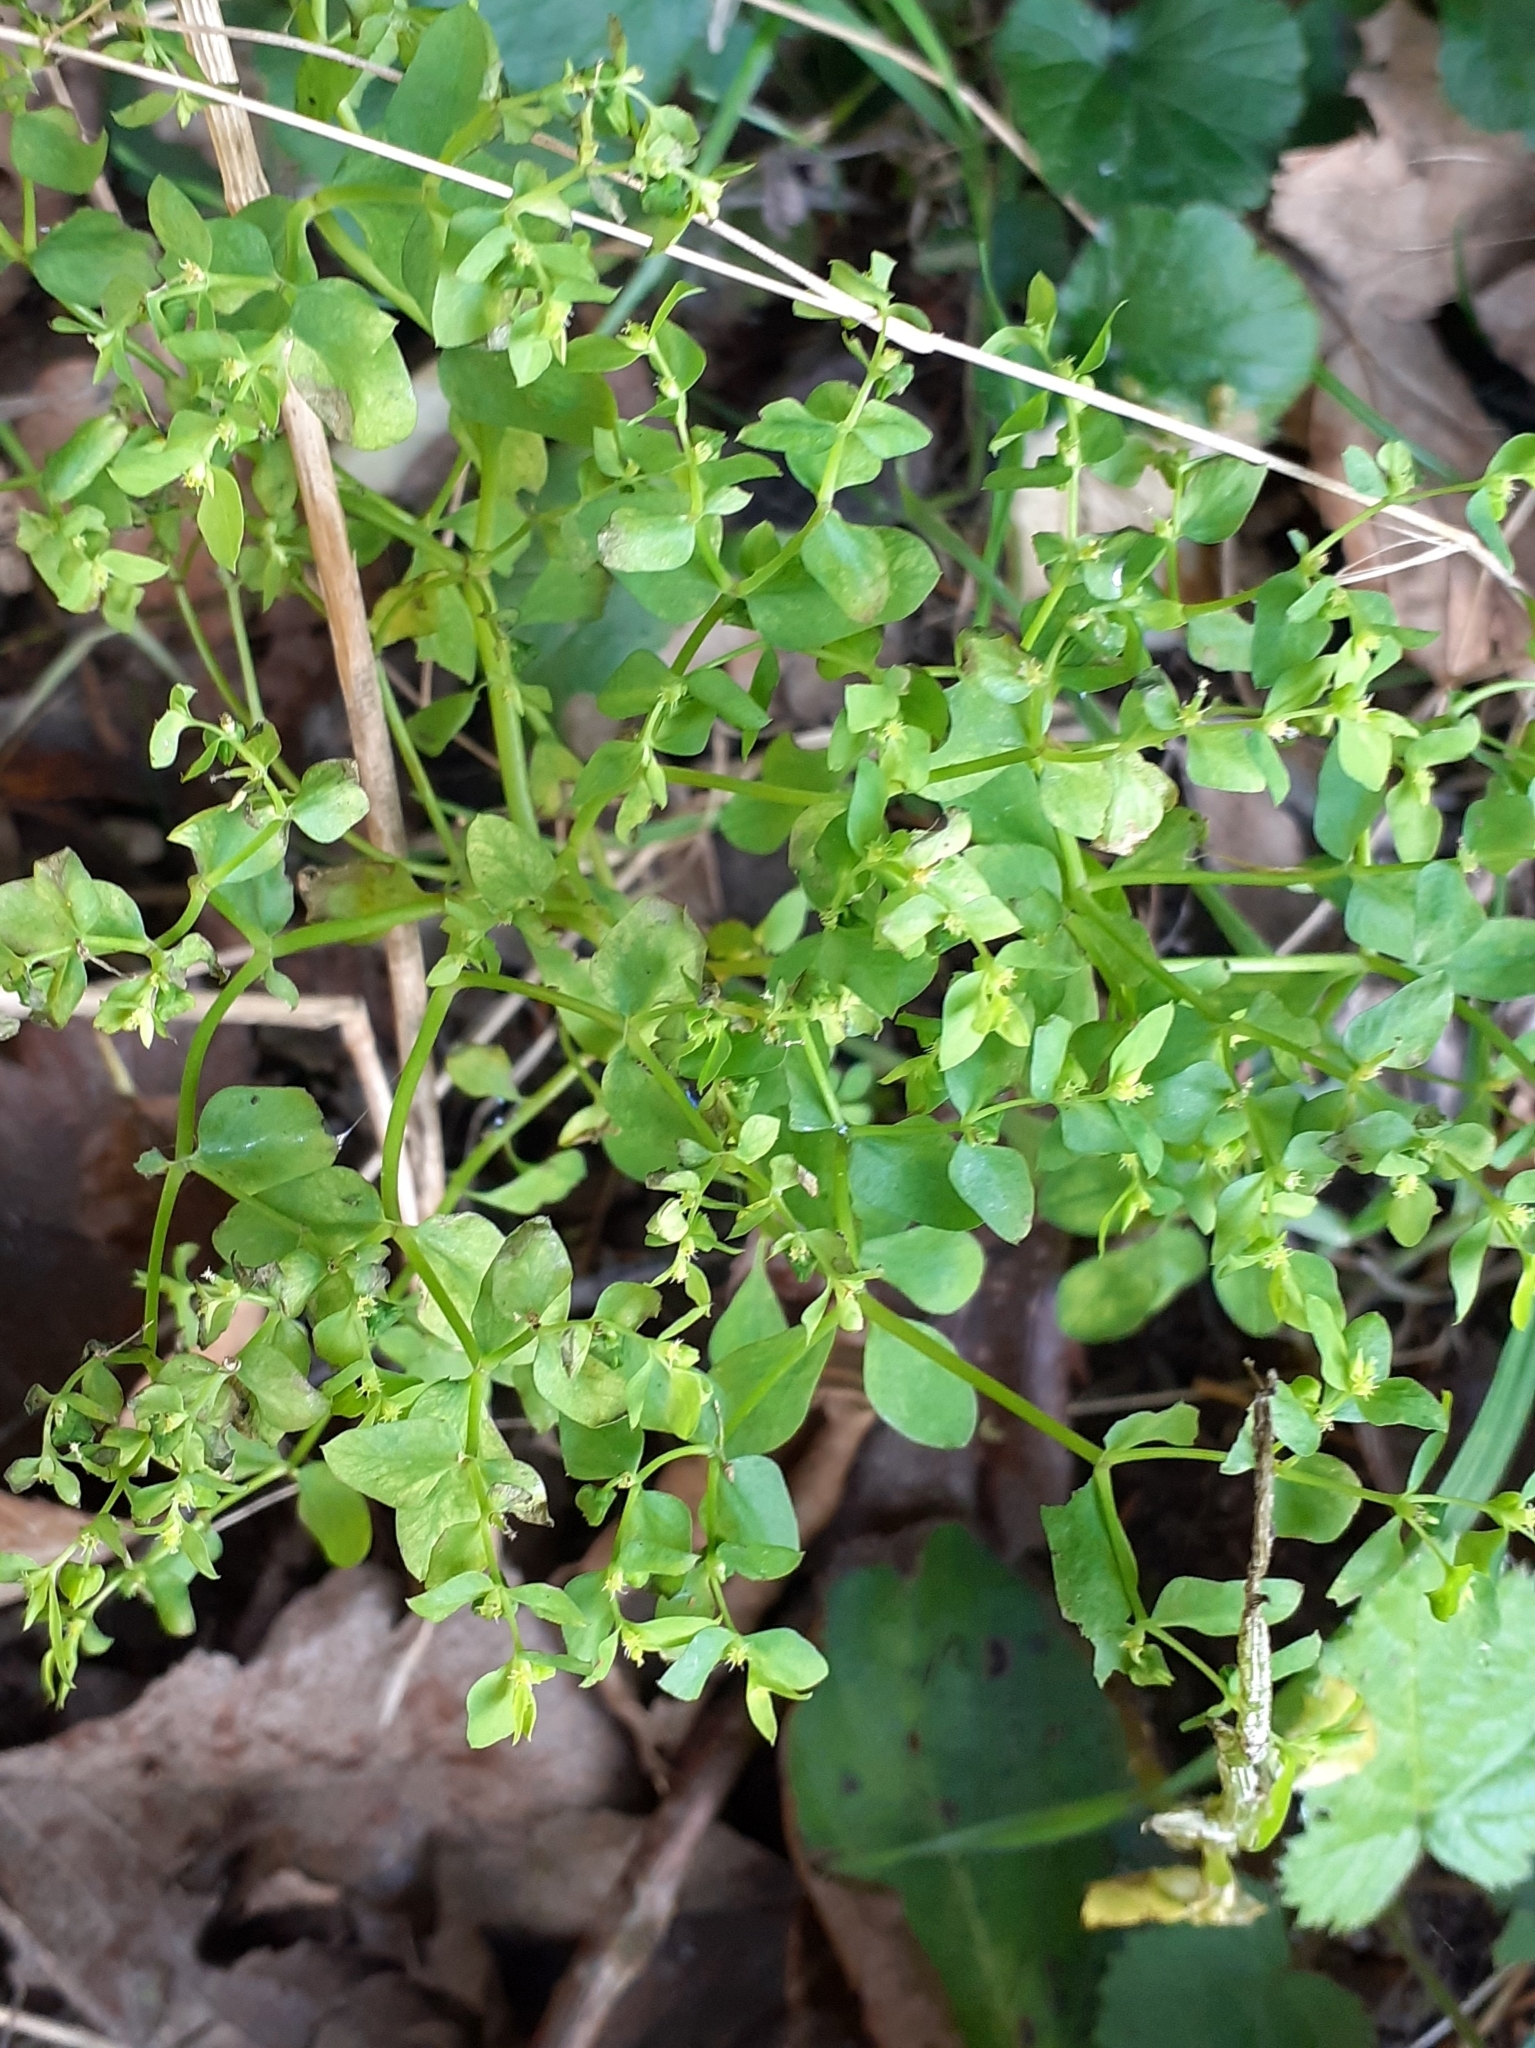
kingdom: Plantae
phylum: Tracheophyta
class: Magnoliopsida
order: Malpighiales
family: Euphorbiaceae
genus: Euphorbia
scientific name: Euphorbia peplus
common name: Petty spurge
